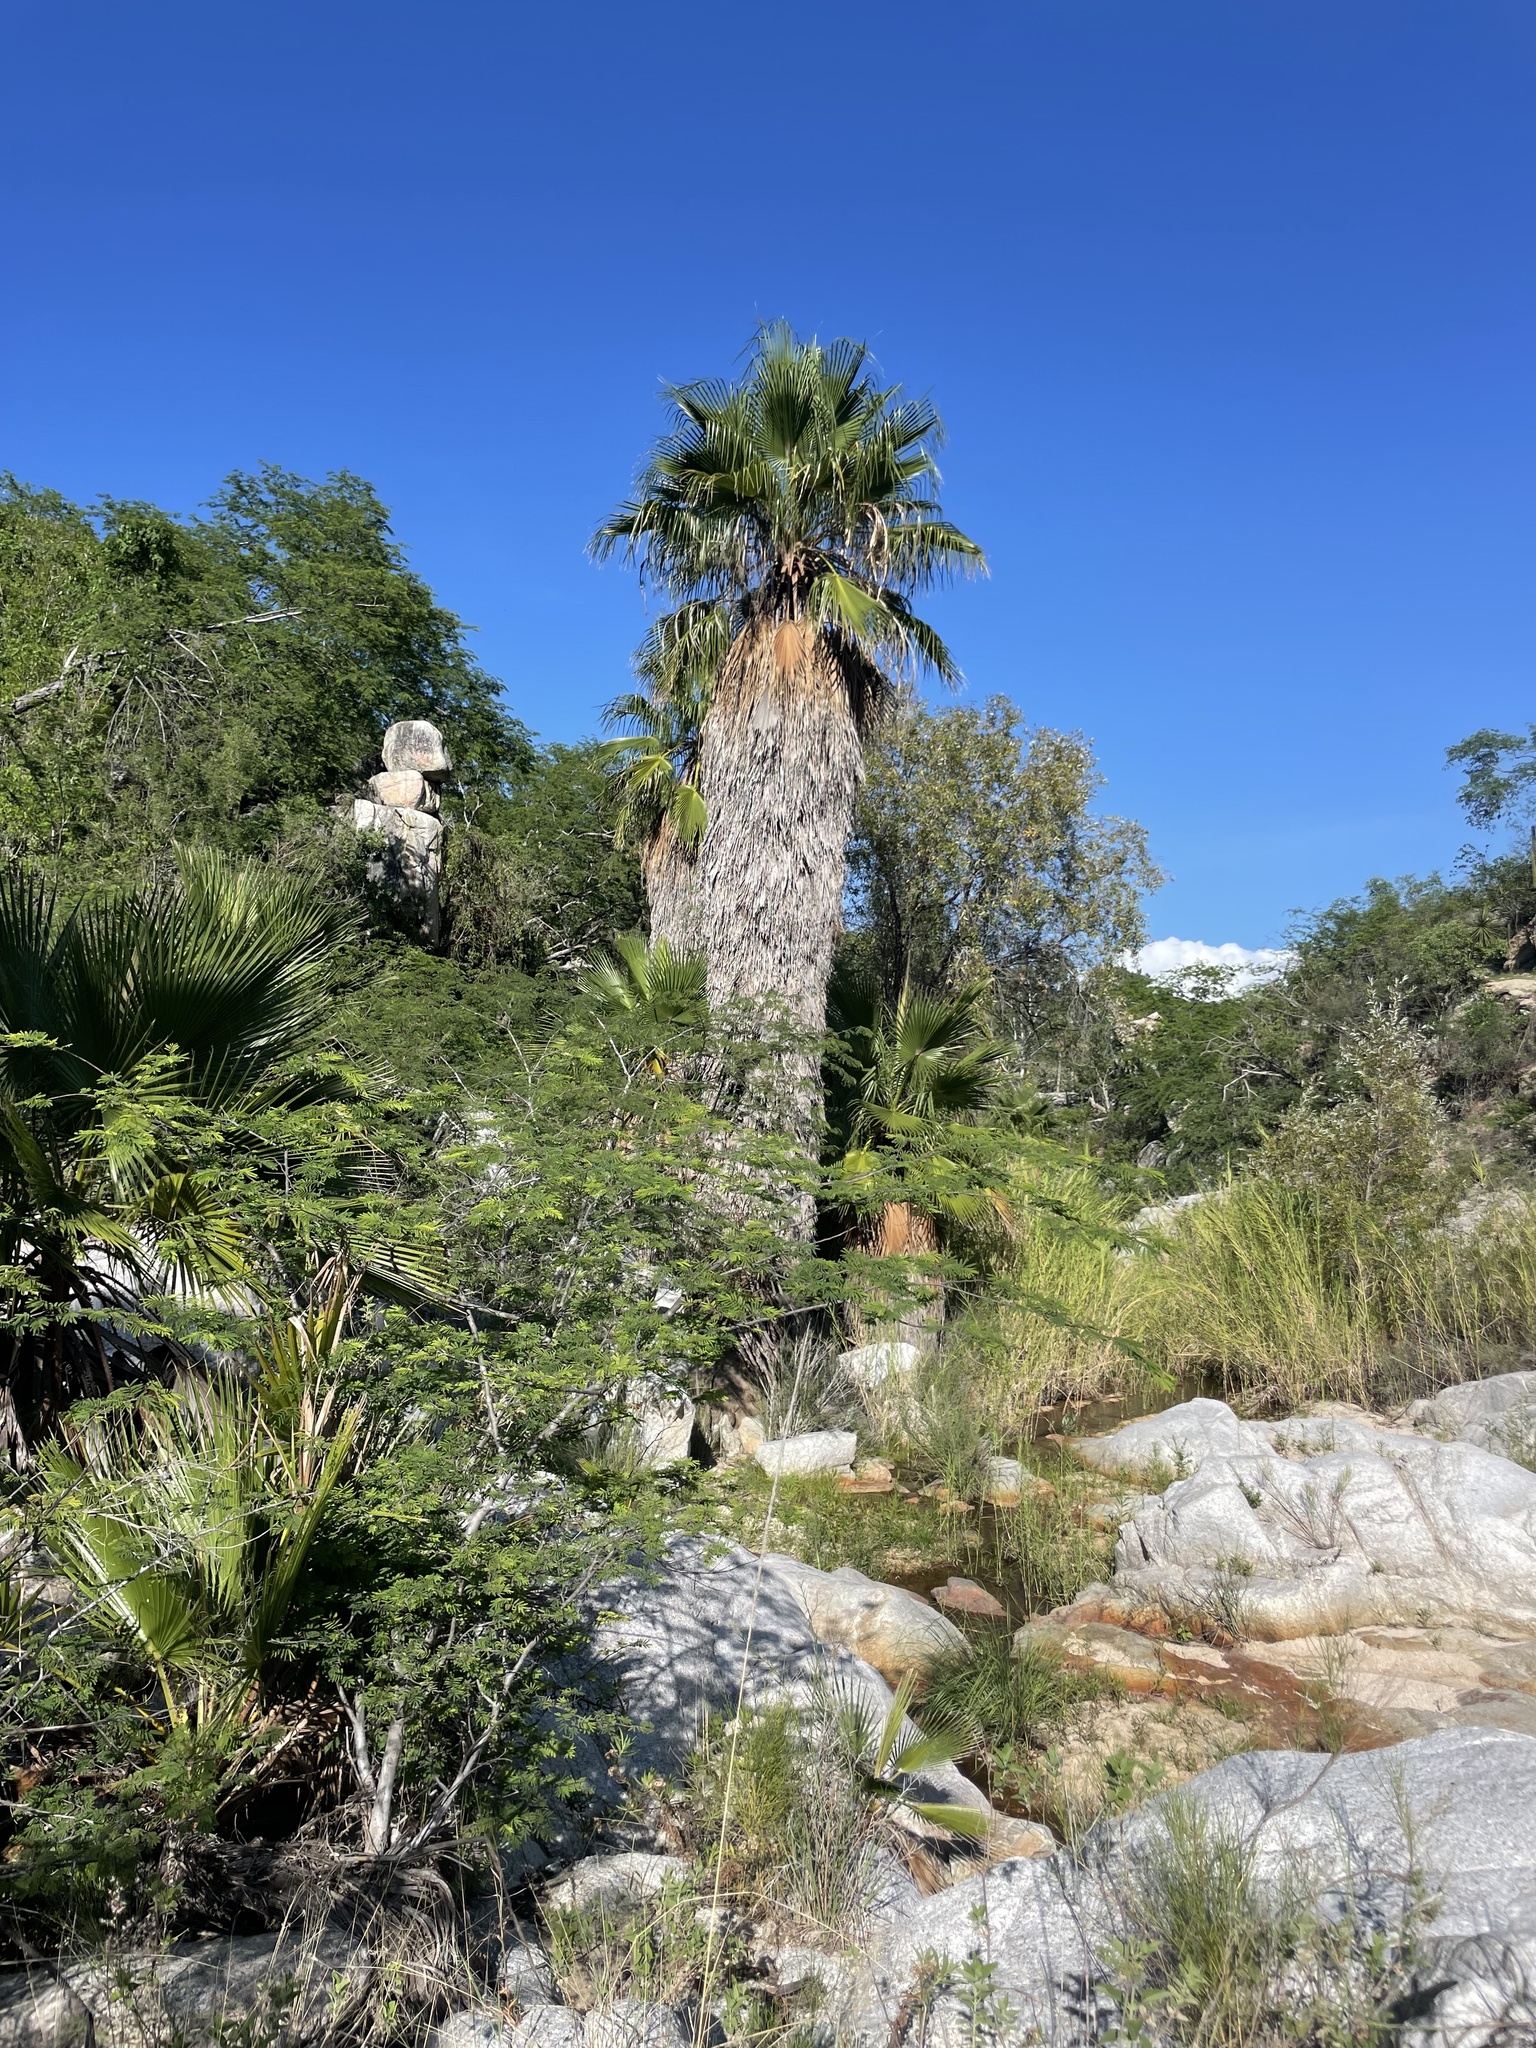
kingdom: Plantae
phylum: Tracheophyta
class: Liliopsida
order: Arecales
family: Arecaceae
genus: Washingtonia
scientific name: Washingtonia robusta
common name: Mexican fan palm
